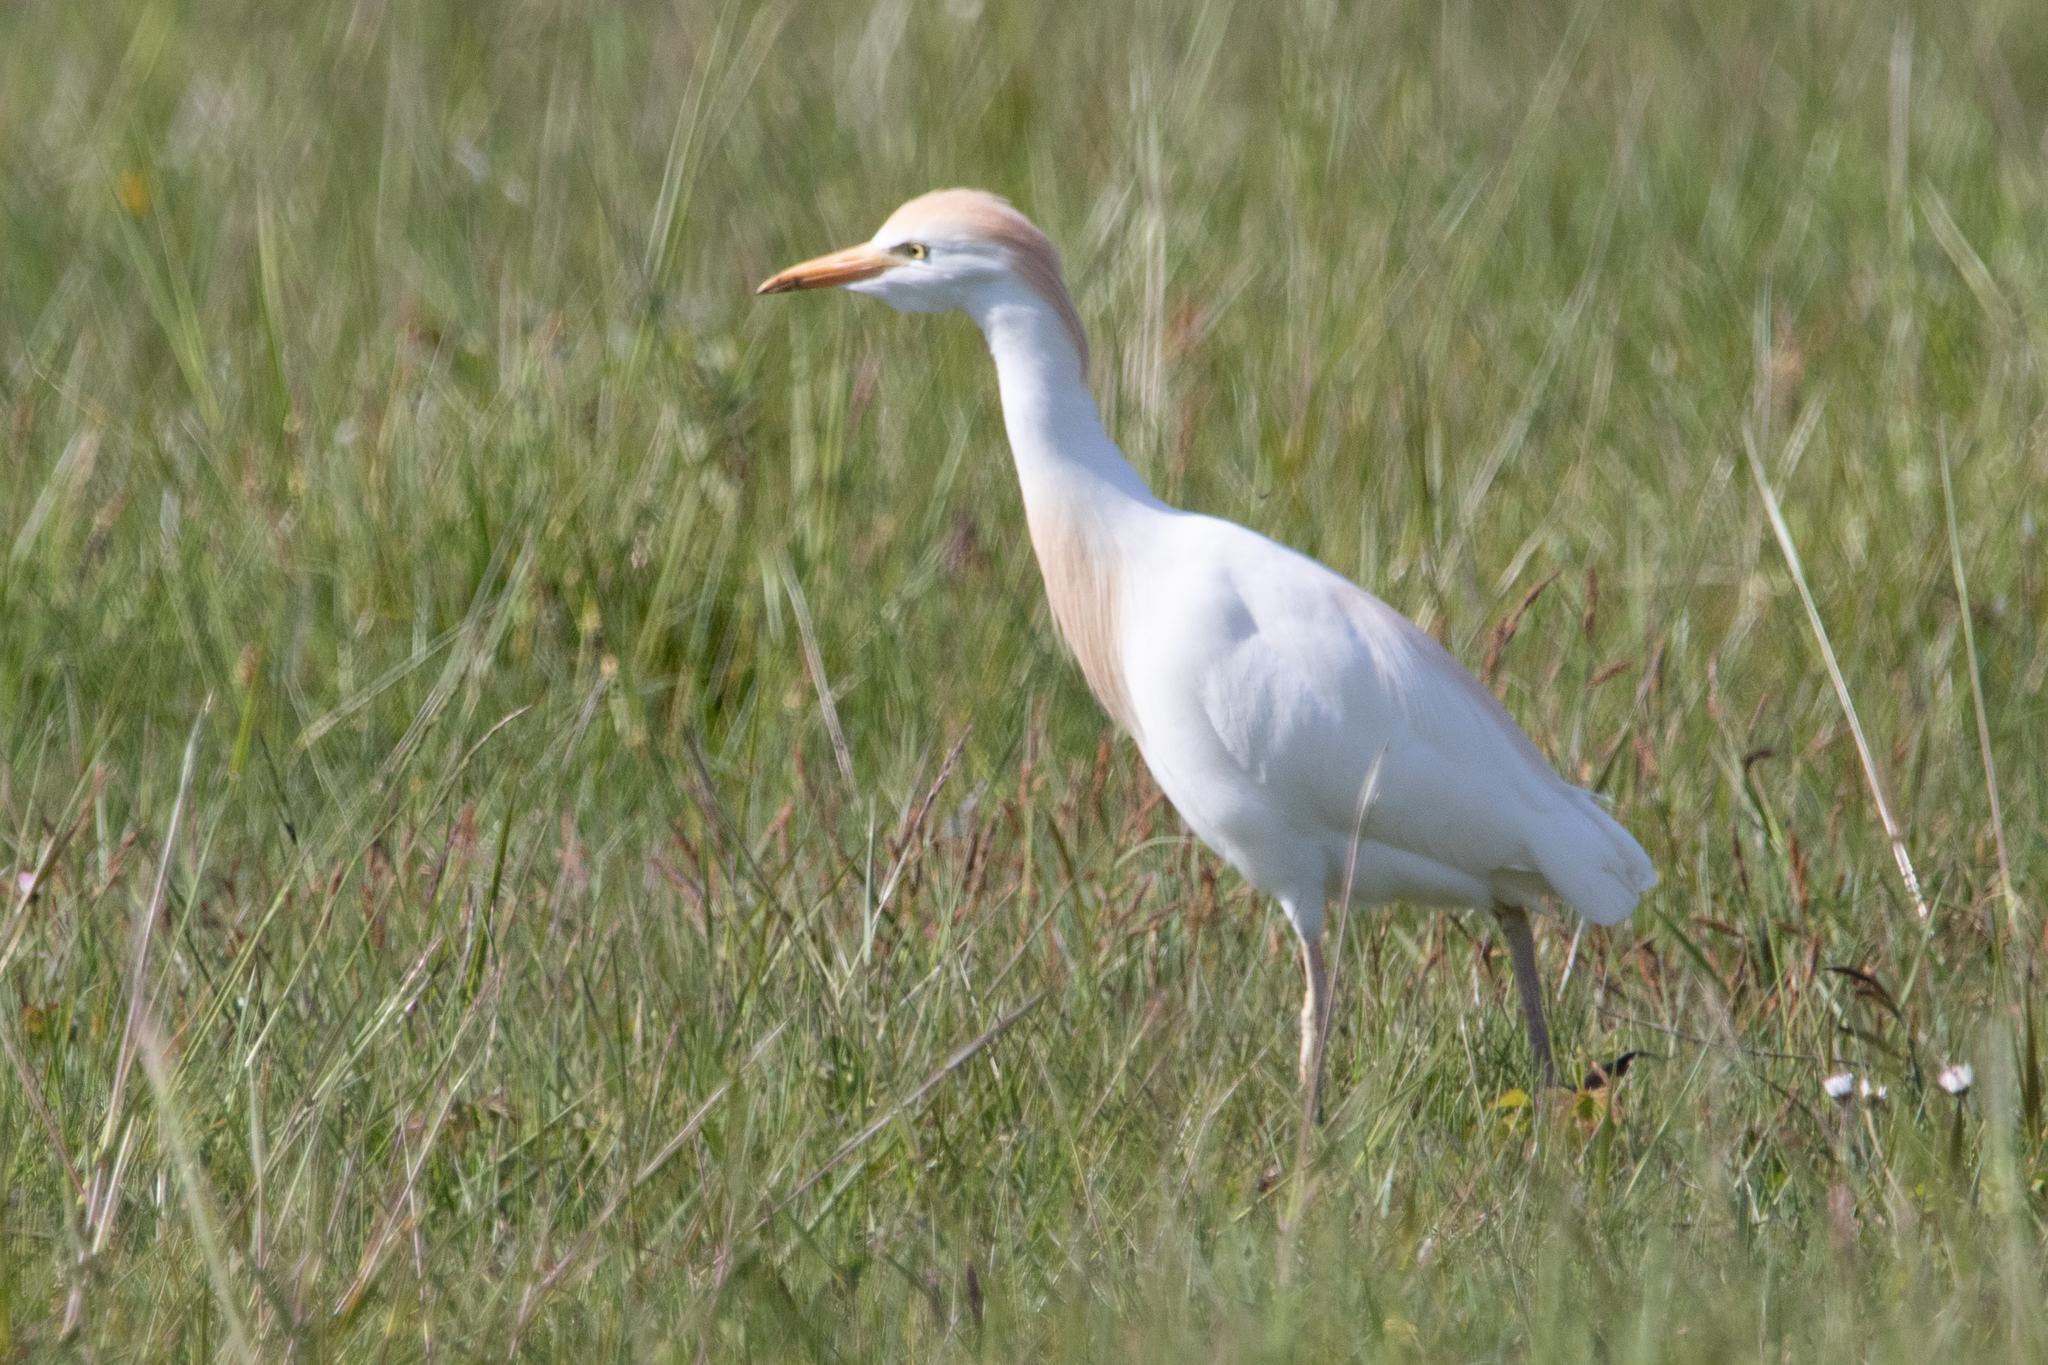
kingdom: Animalia
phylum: Chordata
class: Aves
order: Pelecaniformes
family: Ardeidae
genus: Bubulcus
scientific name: Bubulcus ibis
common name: Cattle egret
